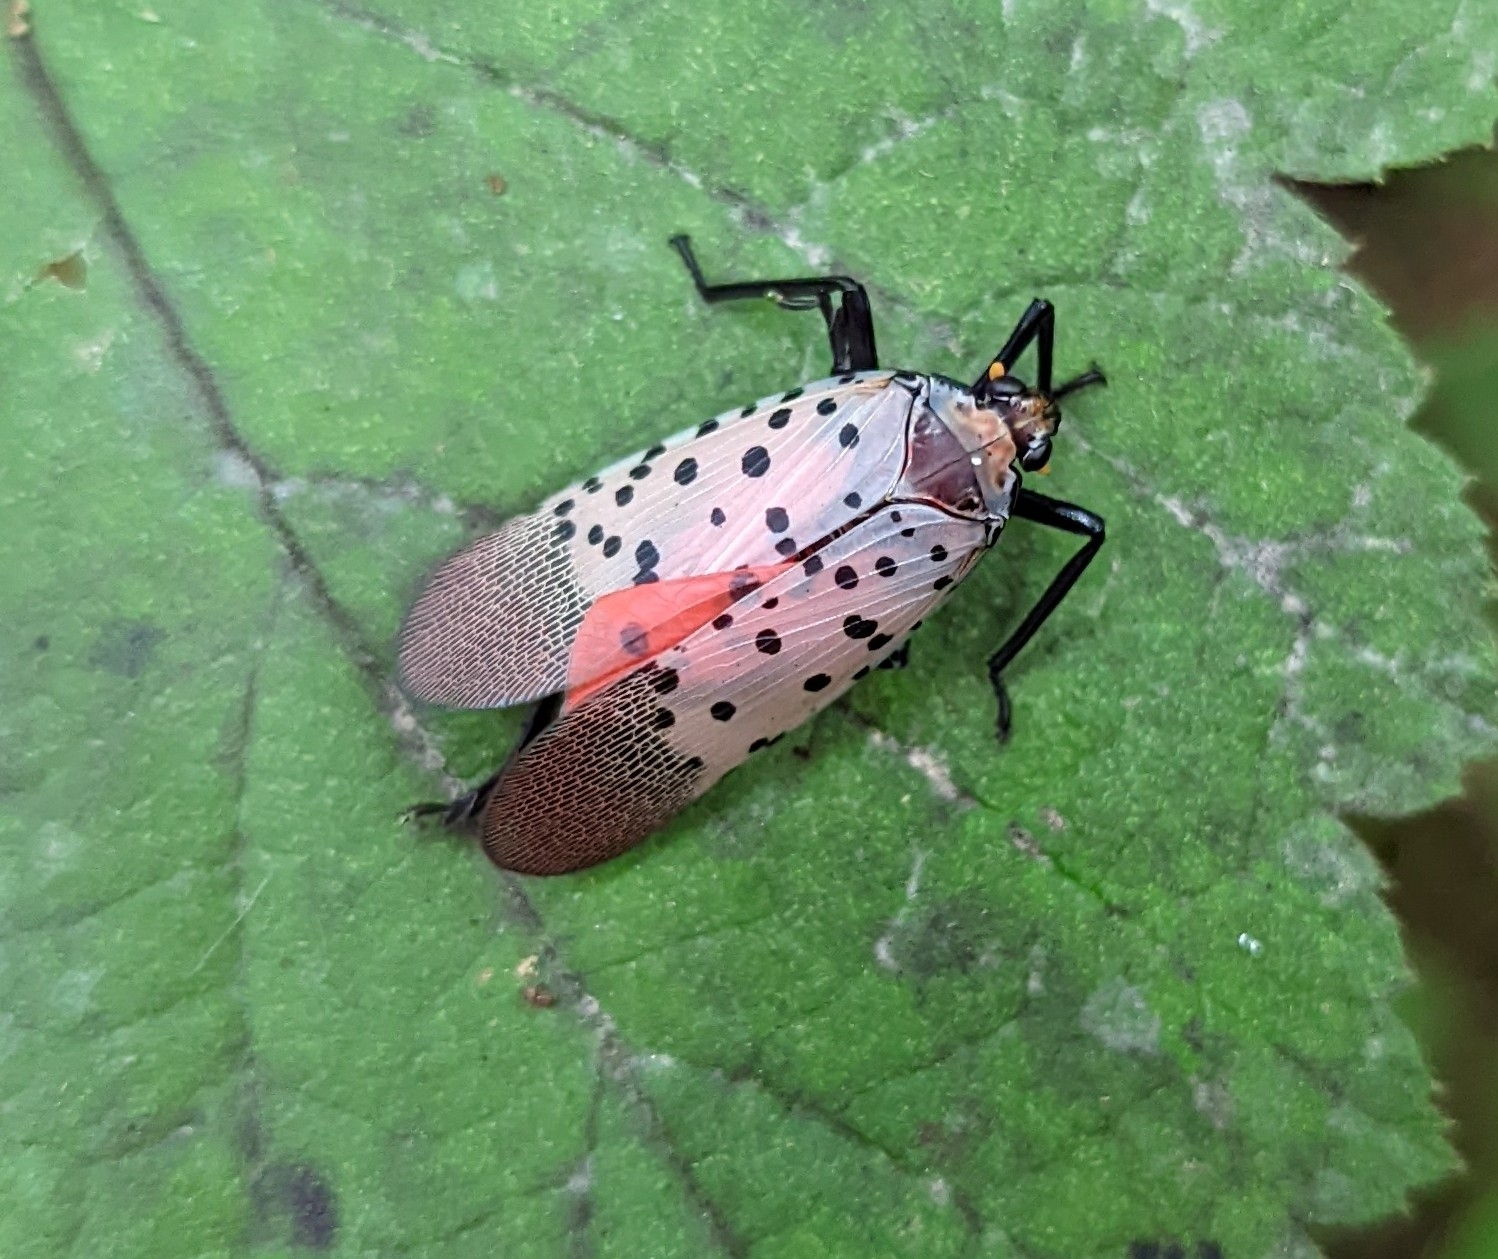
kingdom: Animalia
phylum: Arthropoda
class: Insecta
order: Hemiptera
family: Fulgoridae
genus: Lycorma
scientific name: Lycorma delicatula
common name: Spotted lanternfly
